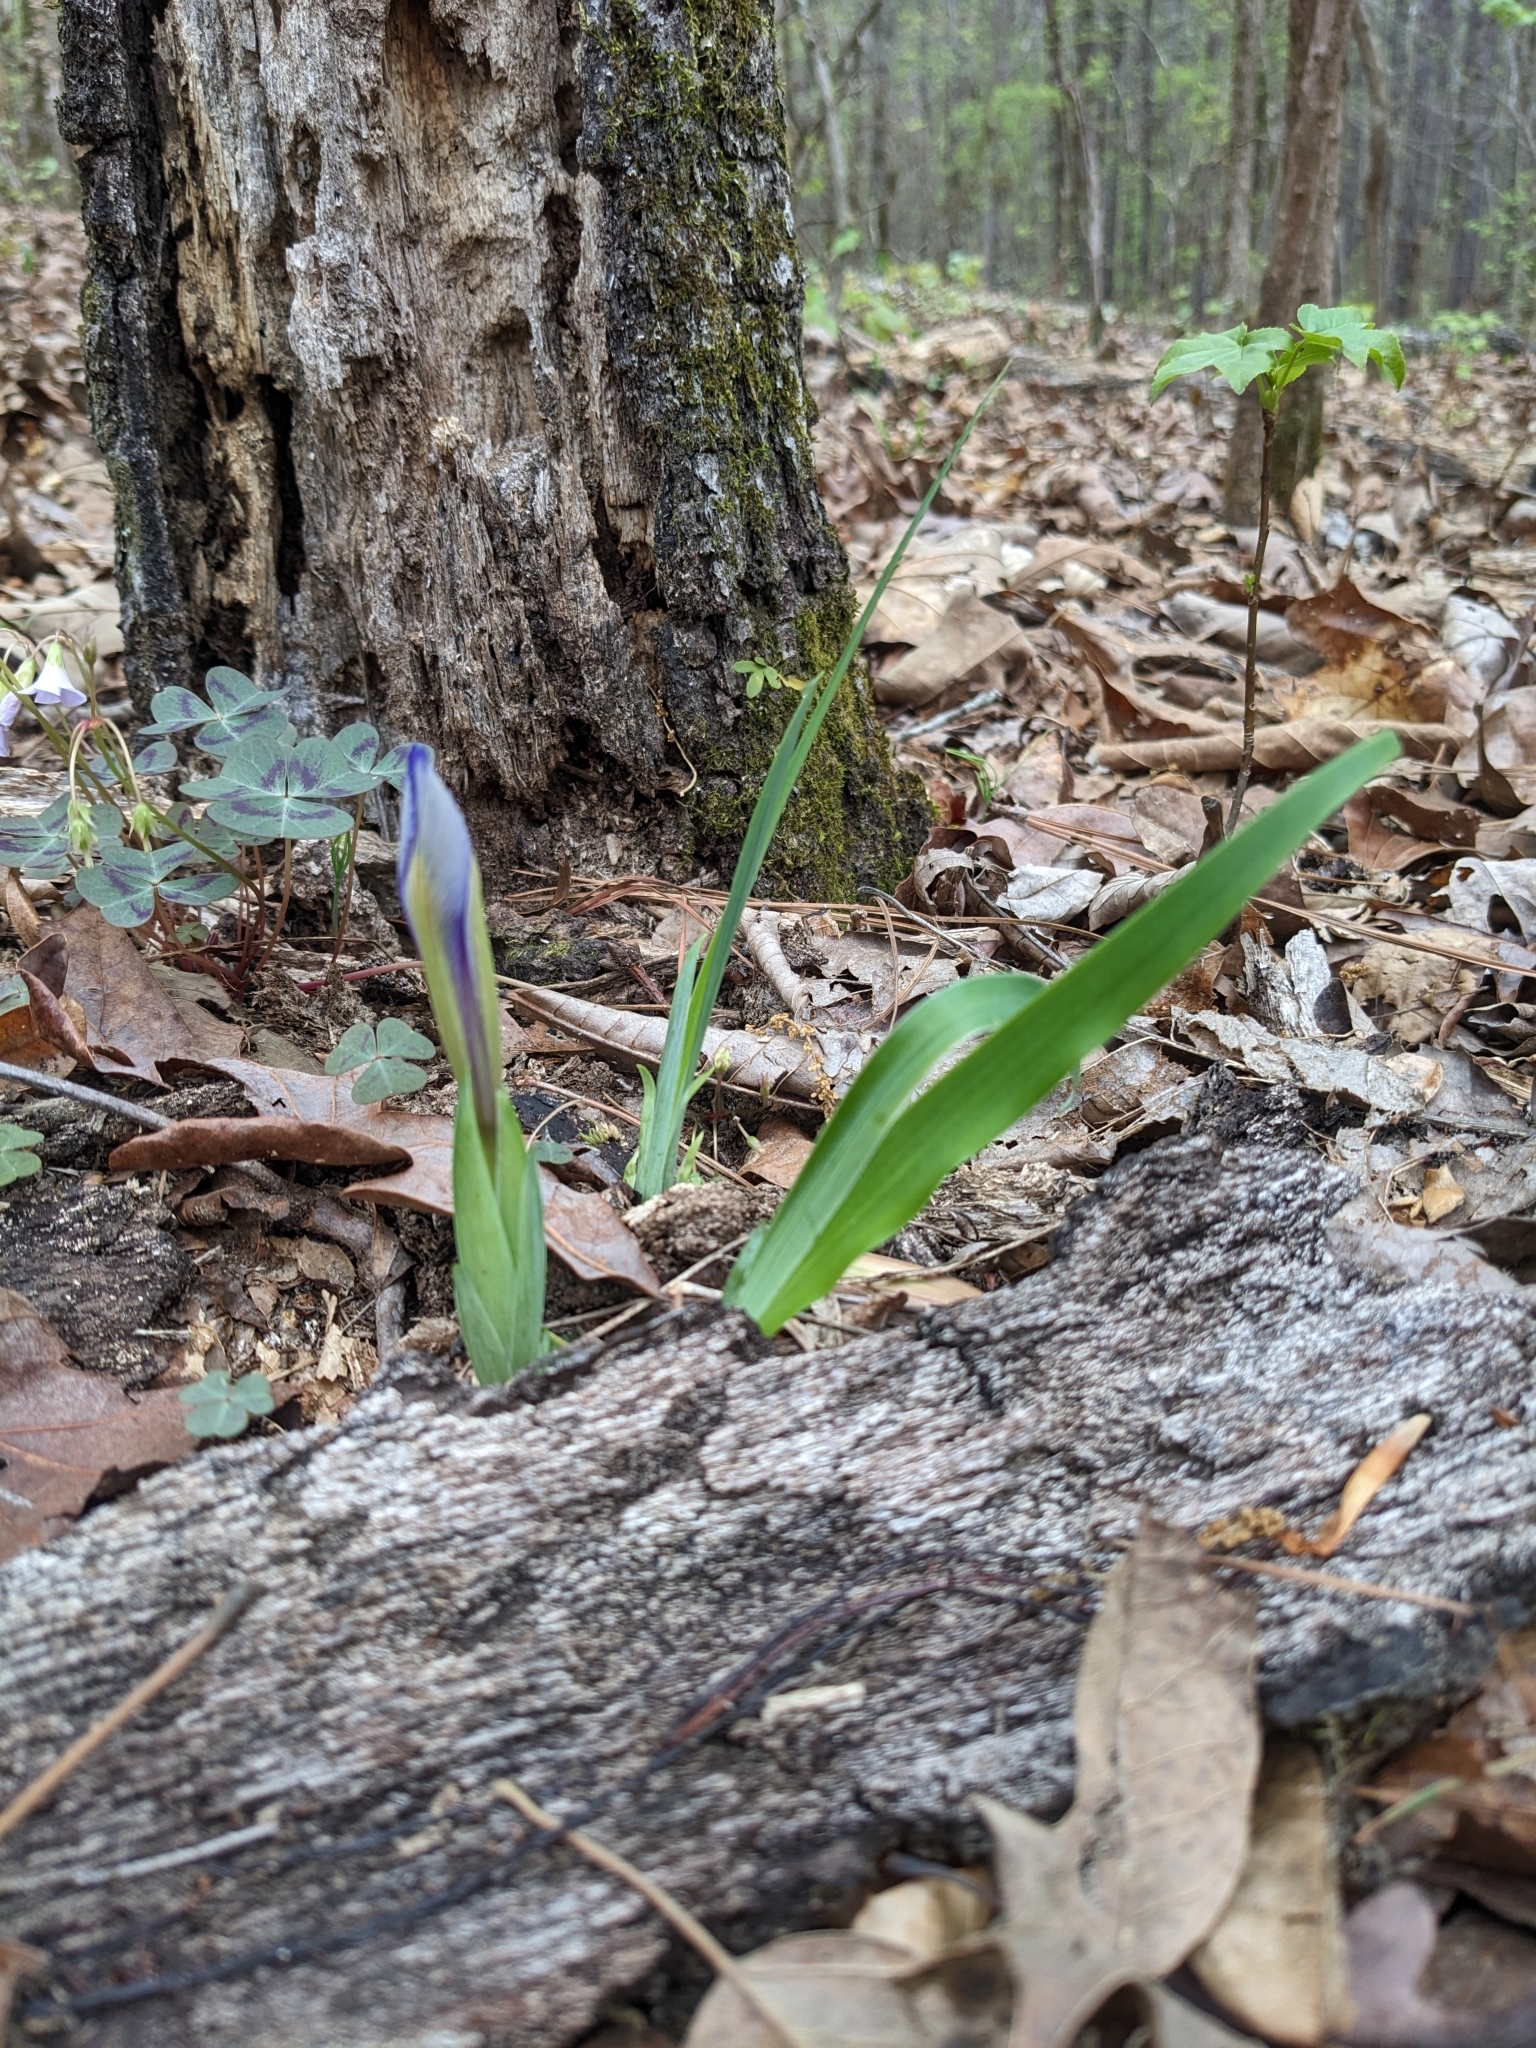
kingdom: Plantae
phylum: Tracheophyta
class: Liliopsida
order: Asparagales
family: Iridaceae
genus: Iris
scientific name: Iris verna
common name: Dwarf iris
